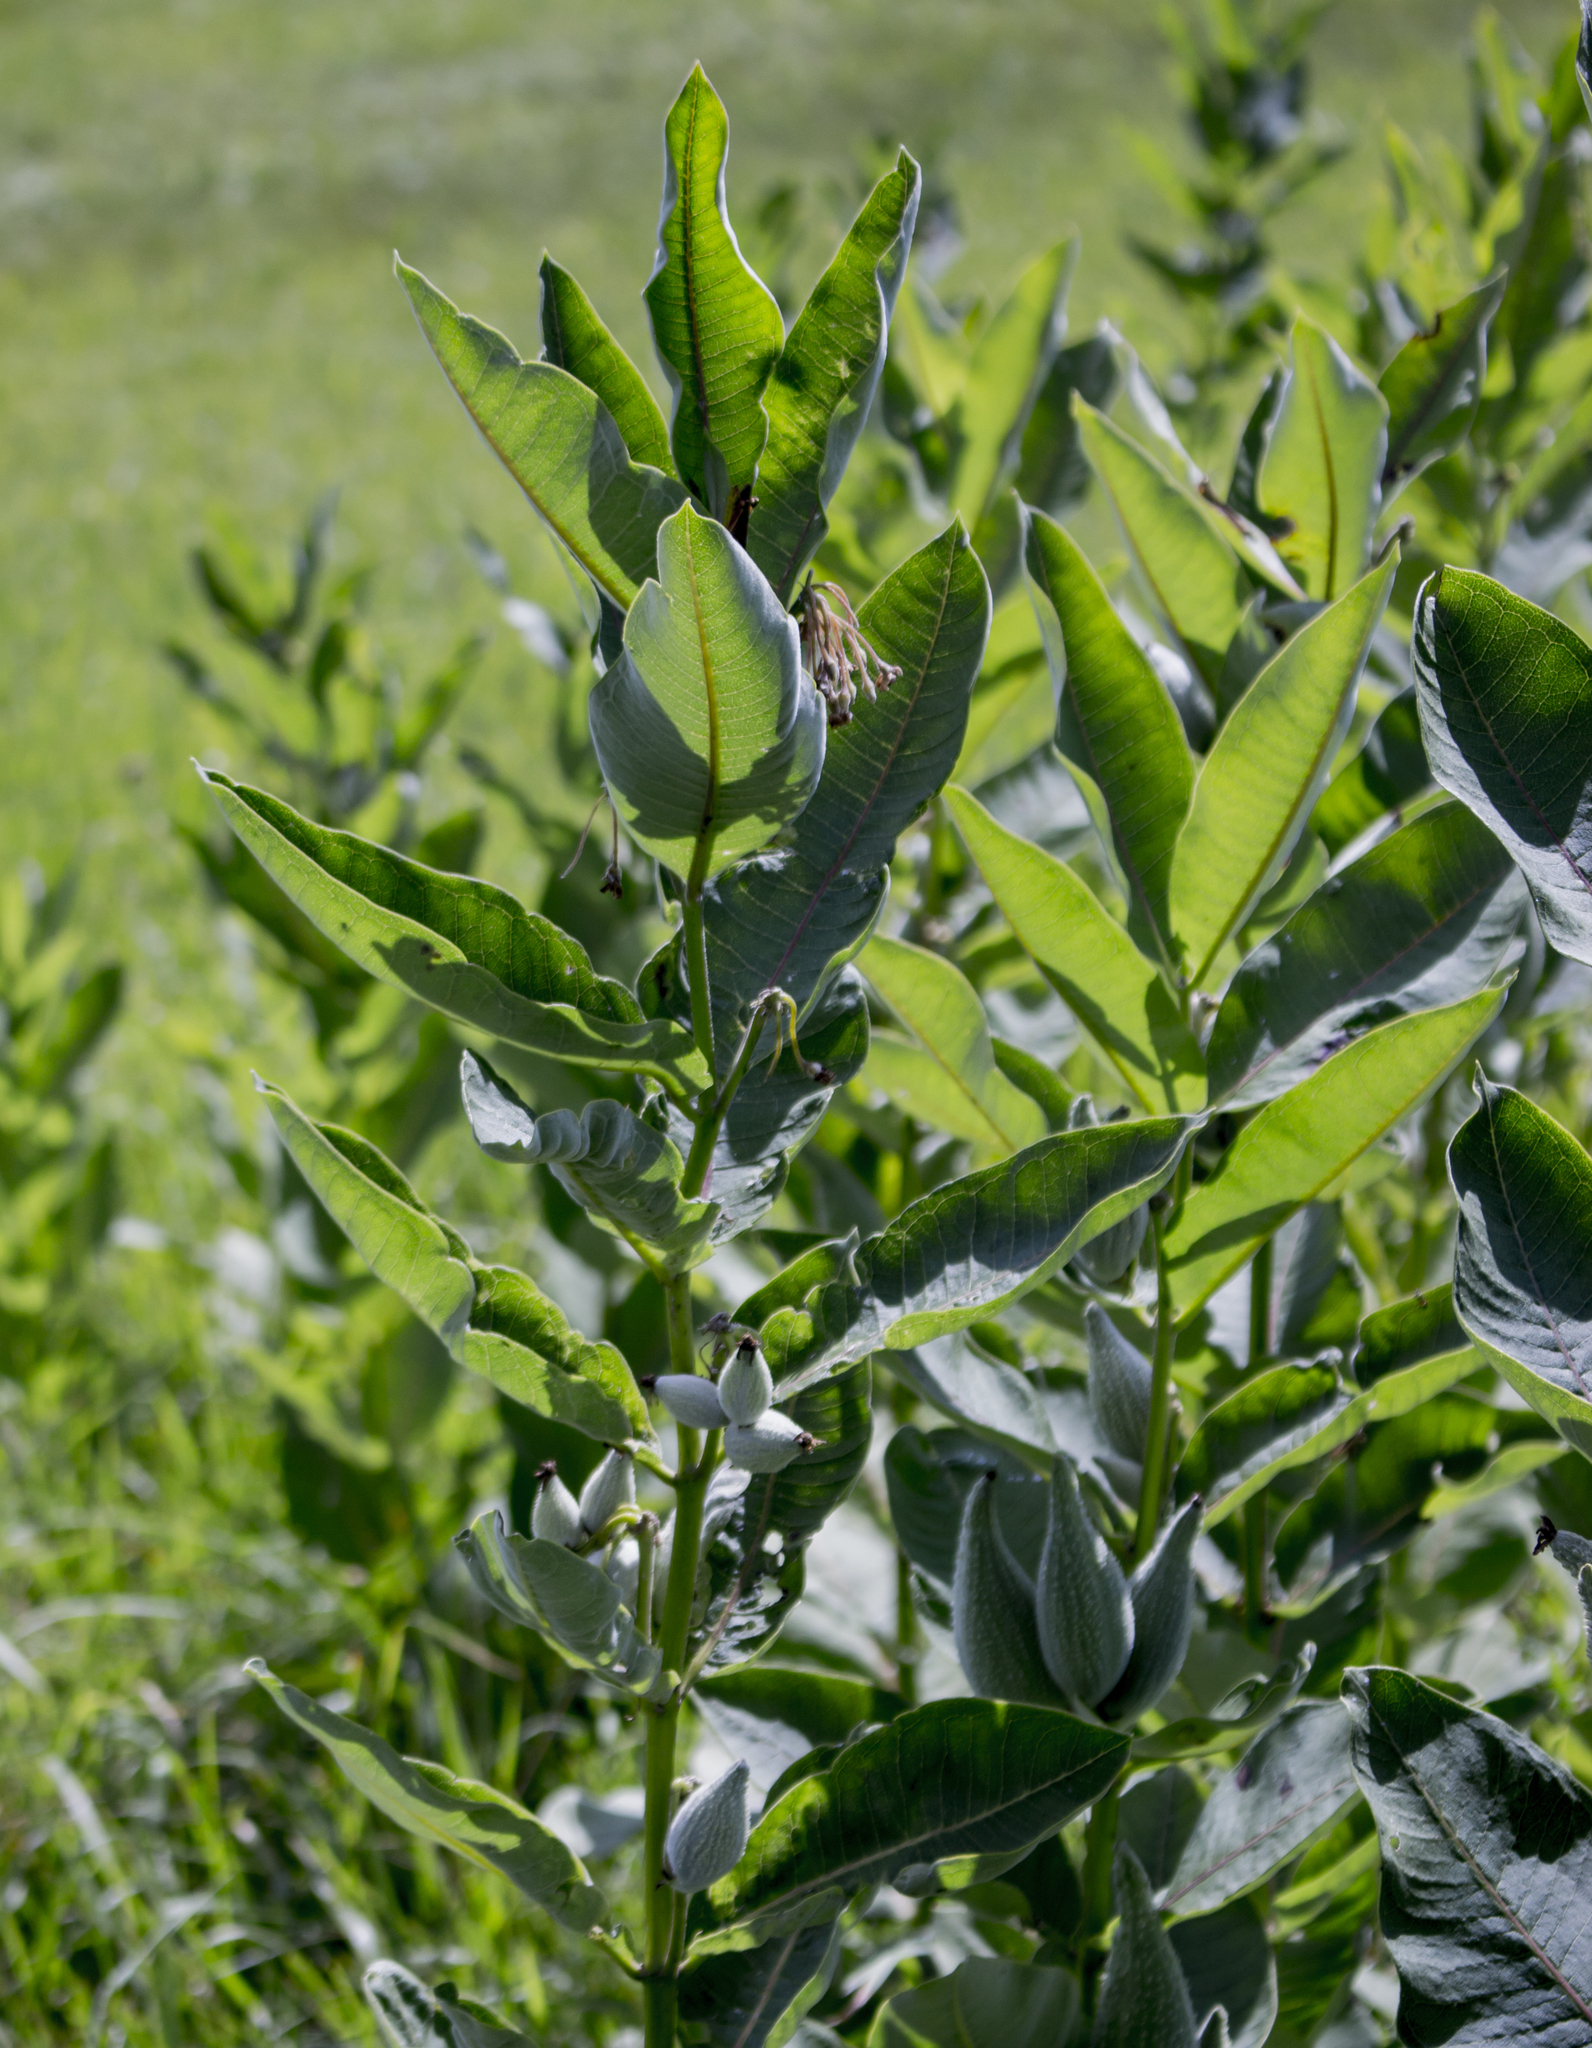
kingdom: Plantae
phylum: Tracheophyta
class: Magnoliopsida
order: Gentianales
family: Apocynaceae
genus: Asclepias
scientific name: Asclepias syriaca
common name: Common milkweed
